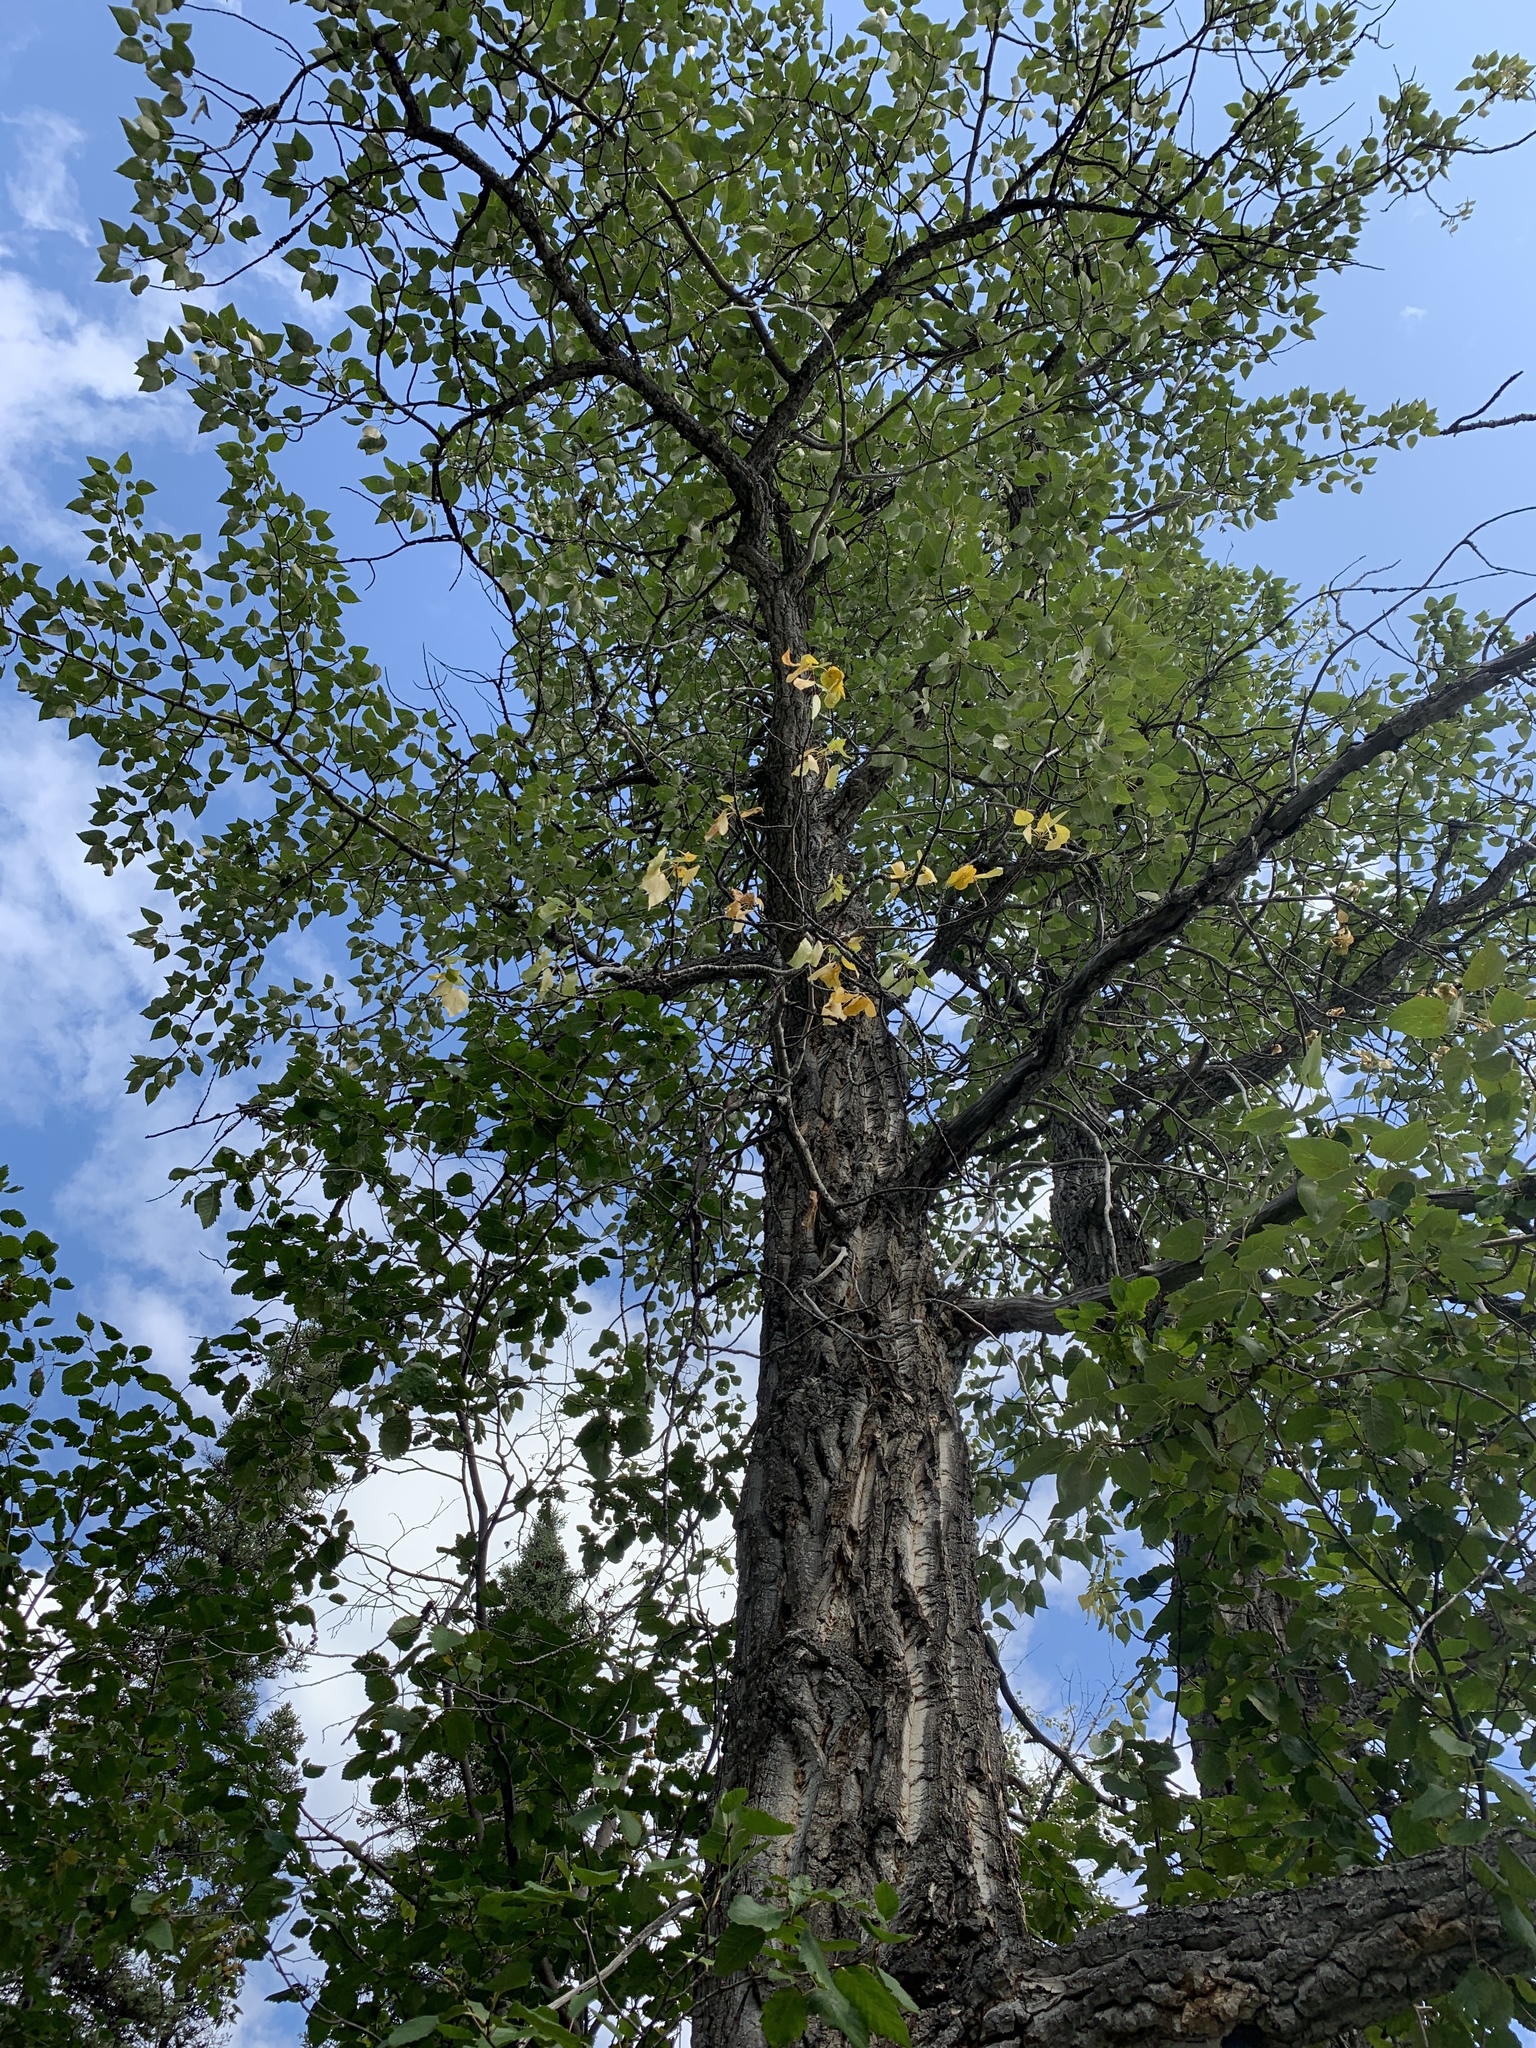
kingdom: Plantae
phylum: Tracheophyta
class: Magnoliopsida
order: Malpighiales
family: Salicaceae
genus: Populus
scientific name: Populus balsamifera
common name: Balsam poplar
